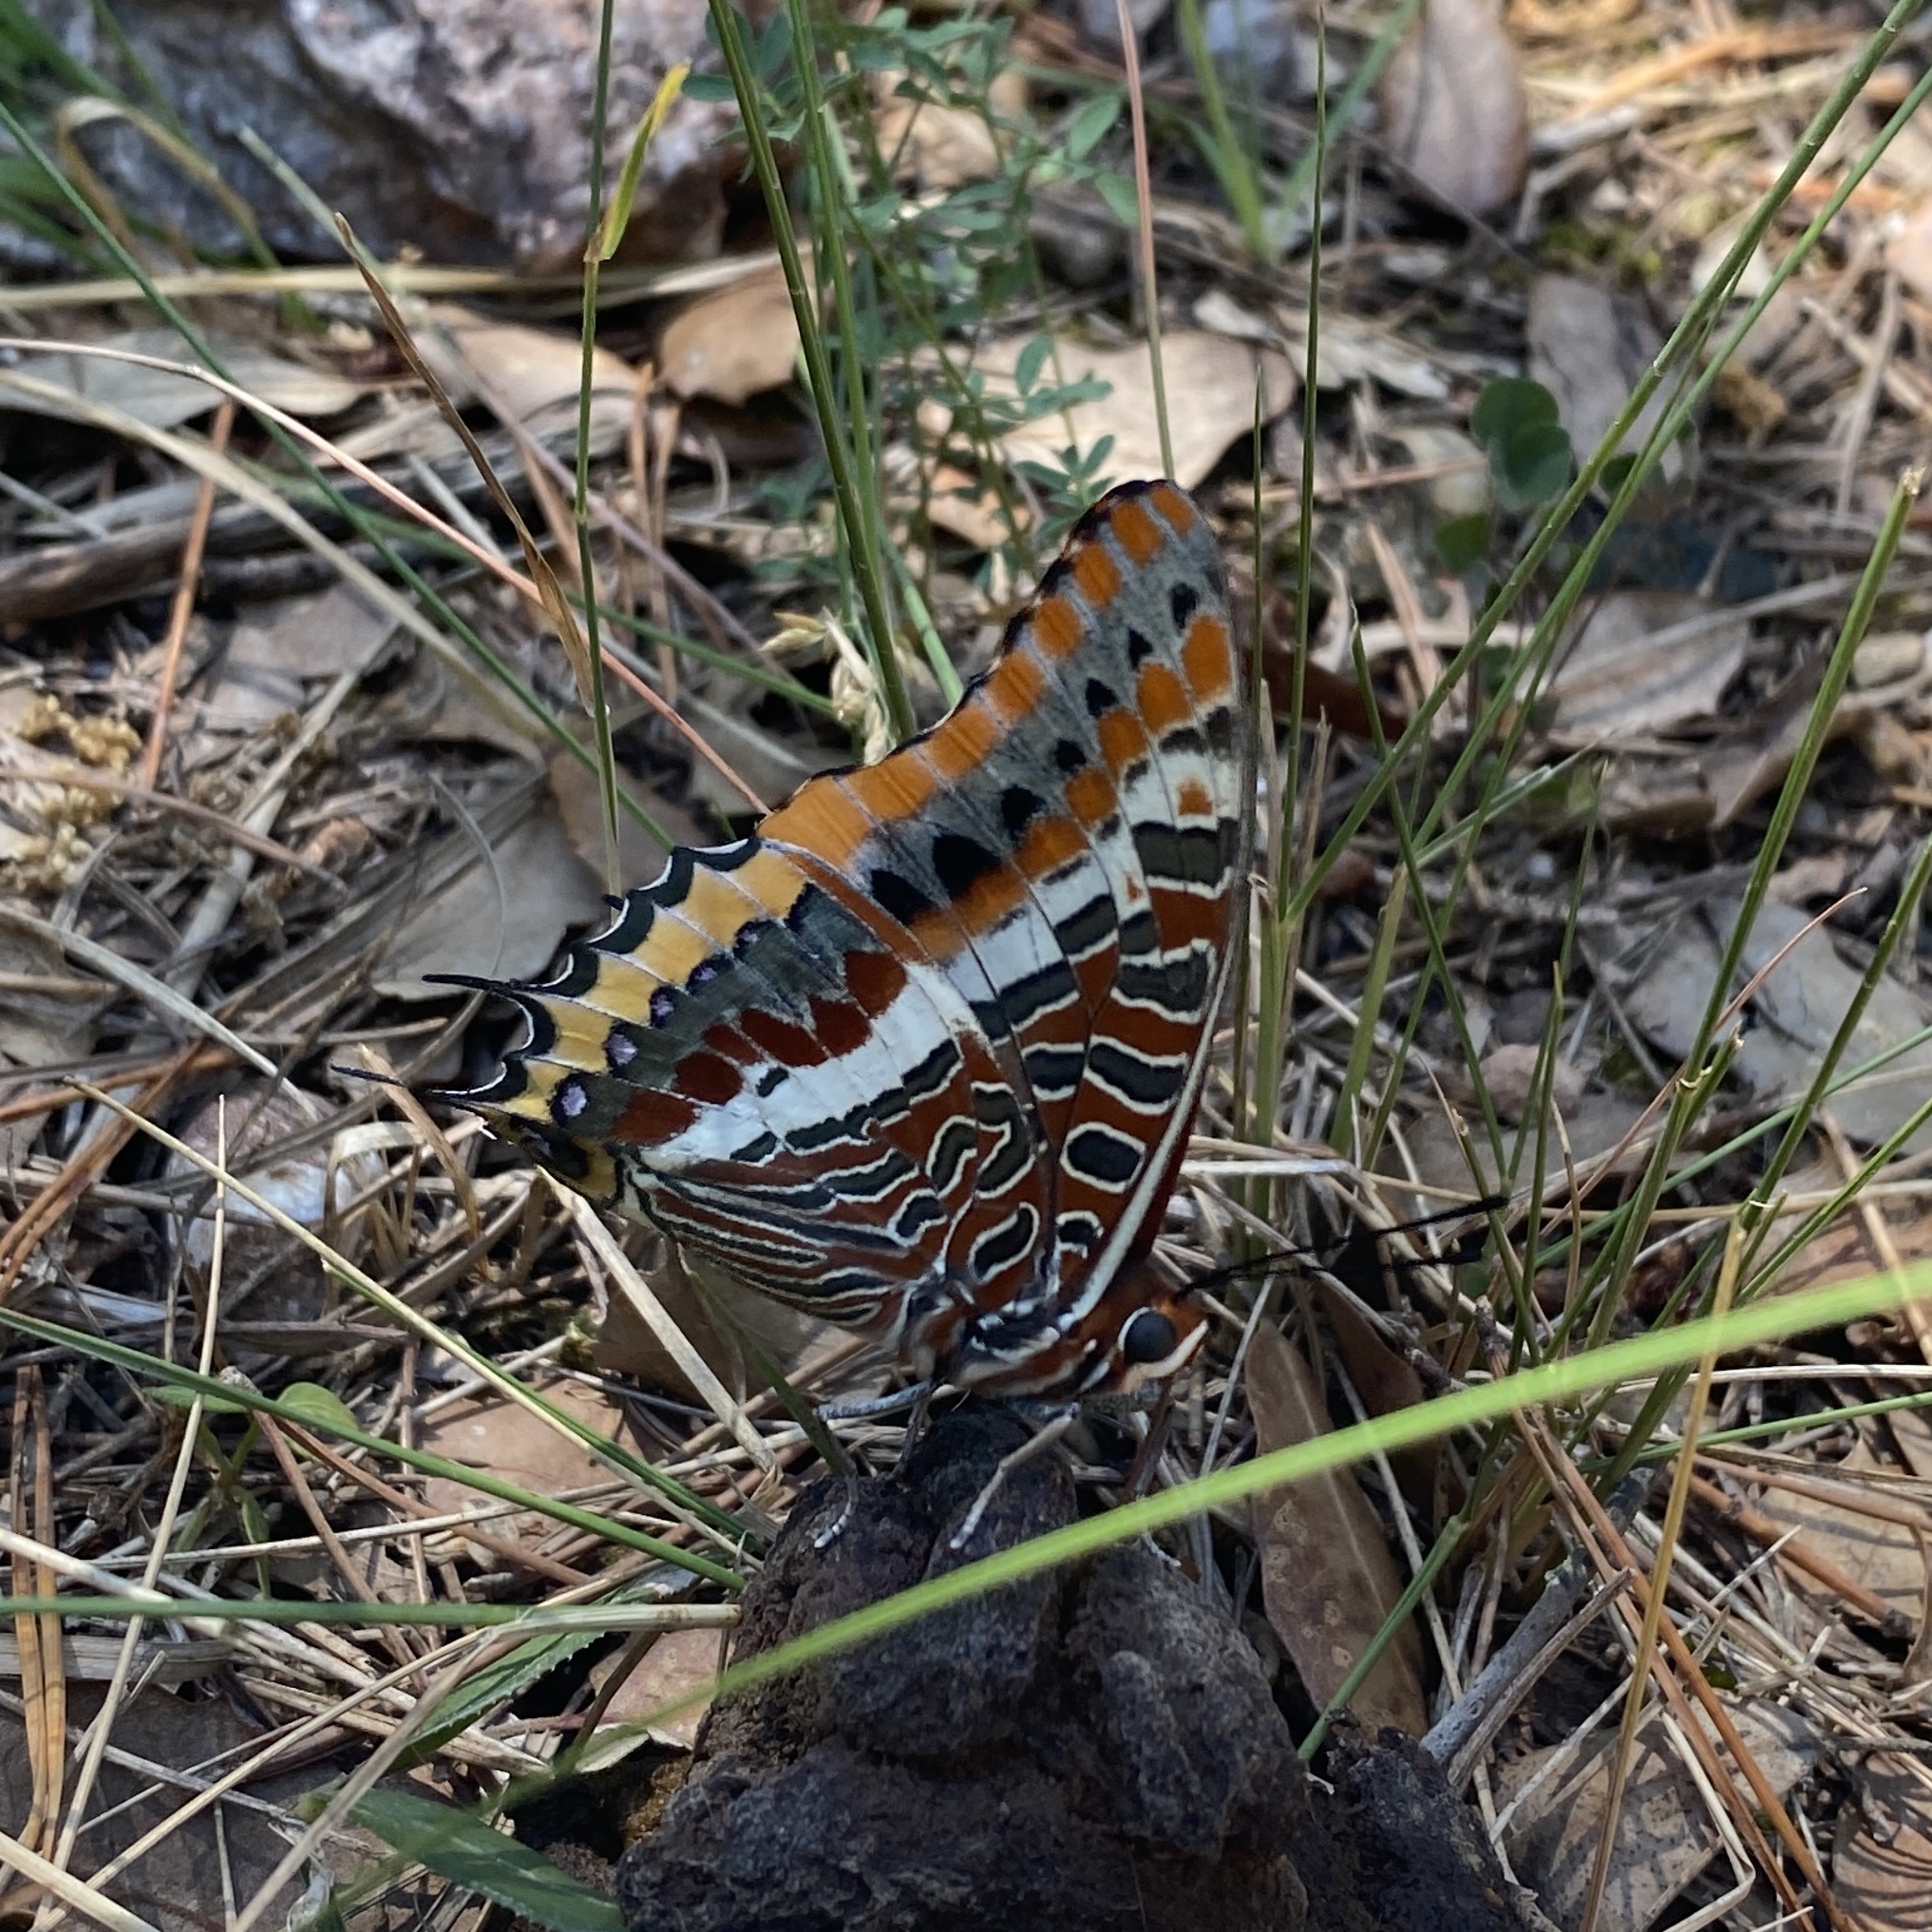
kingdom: Animalia
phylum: Arthropoda
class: Insecta
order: Lepidoptera
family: Nymphalidae
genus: Charaxes
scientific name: Charaxes jasius
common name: Two tailed pasha
